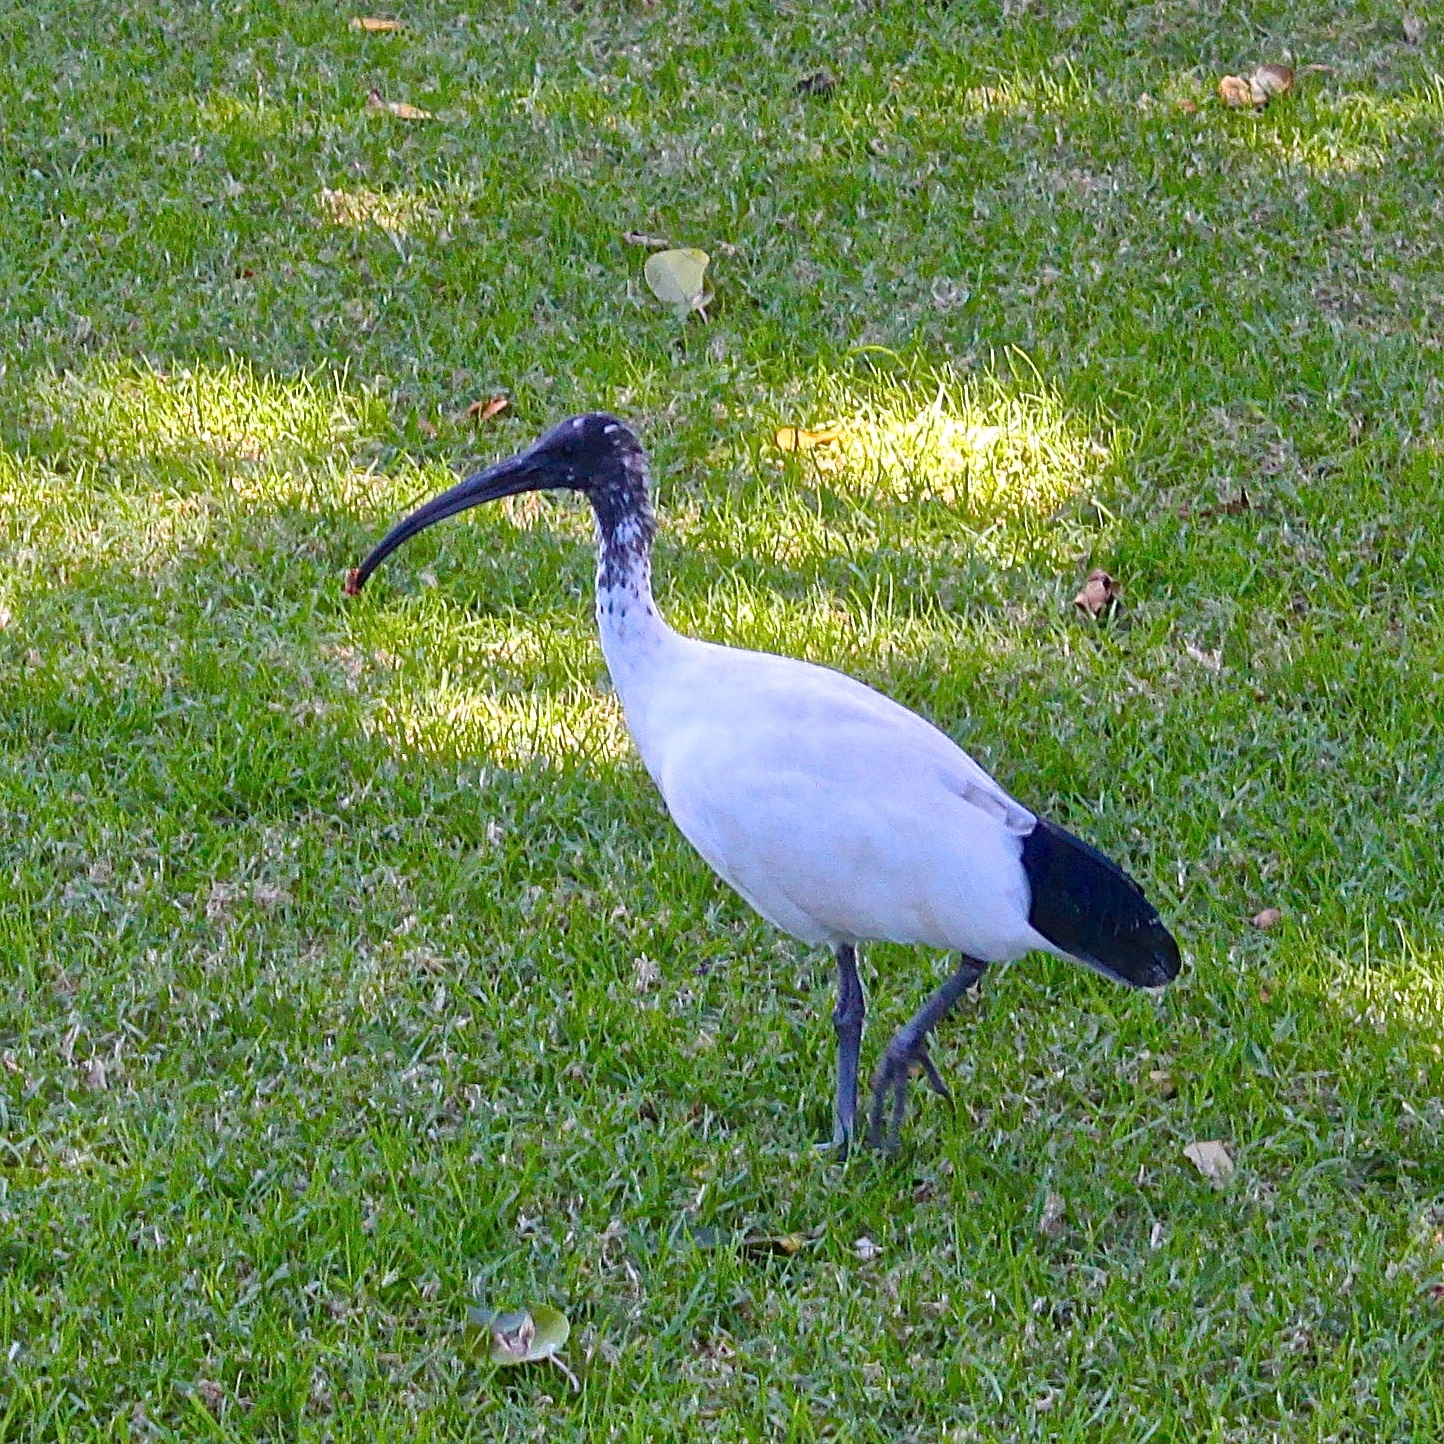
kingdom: Animalia
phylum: Chordata
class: Aves
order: Pelecaniformes
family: Threskiornithidae
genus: Threskiornis
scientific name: Threskiornis molucca
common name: Australian white ibis
